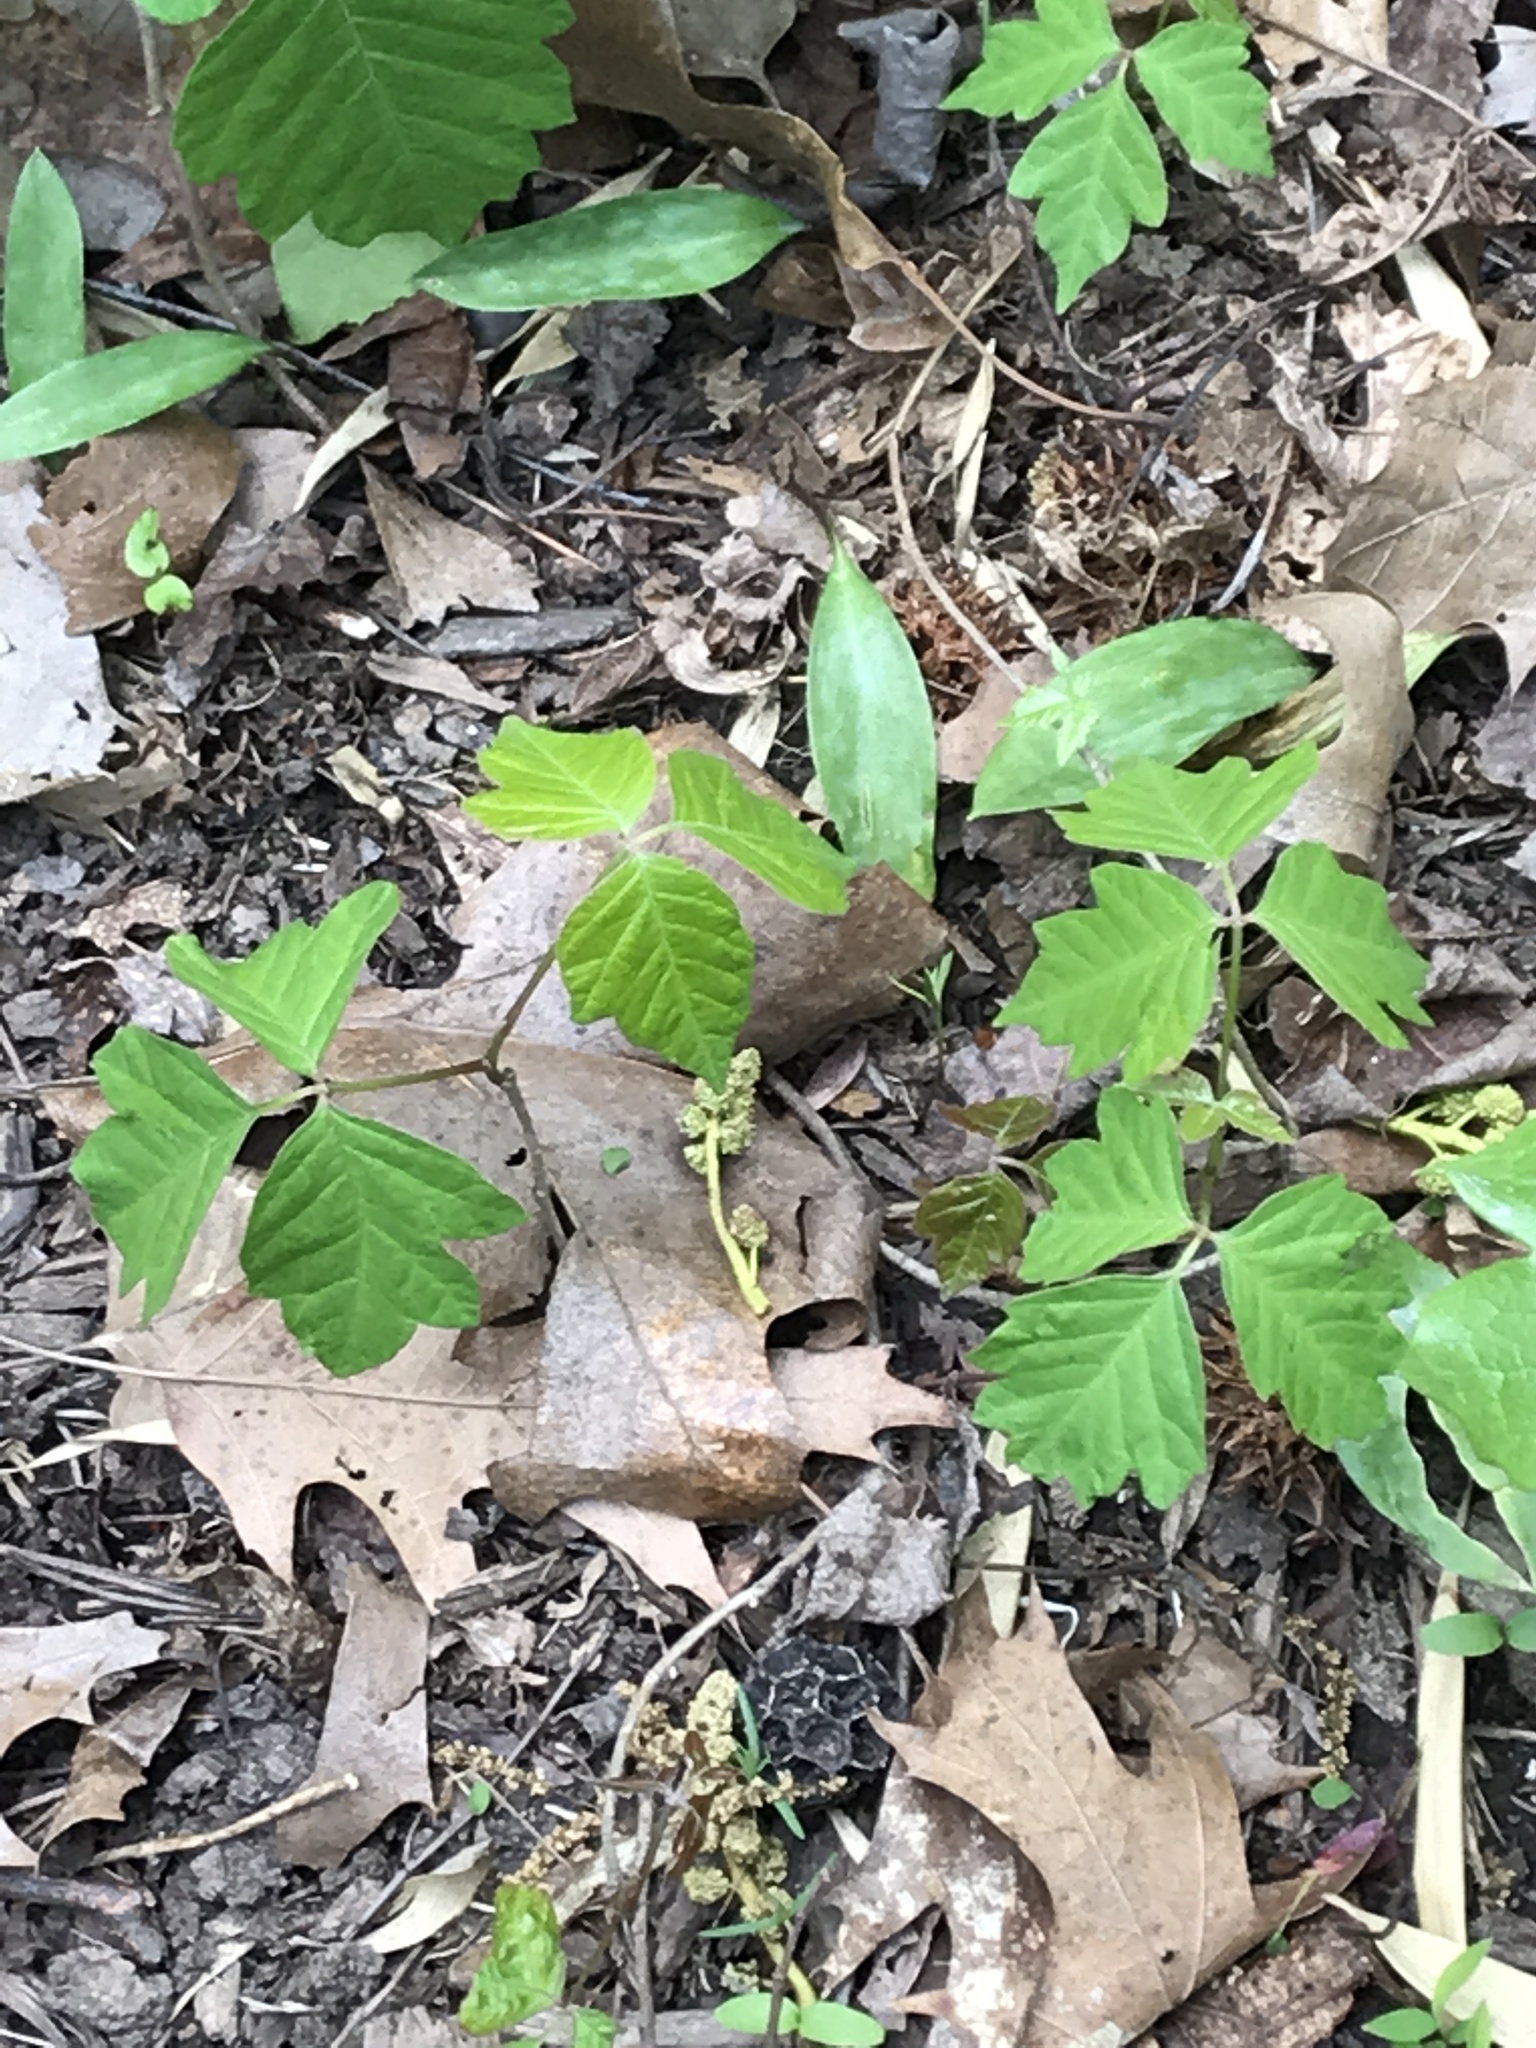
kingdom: Plantae
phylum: Tracheophyta
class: Magnoliopsida
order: Sapindales
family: Anacardiaceae
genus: Toxicodendron
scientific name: Toxicodendron radicans
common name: Poison ivy
